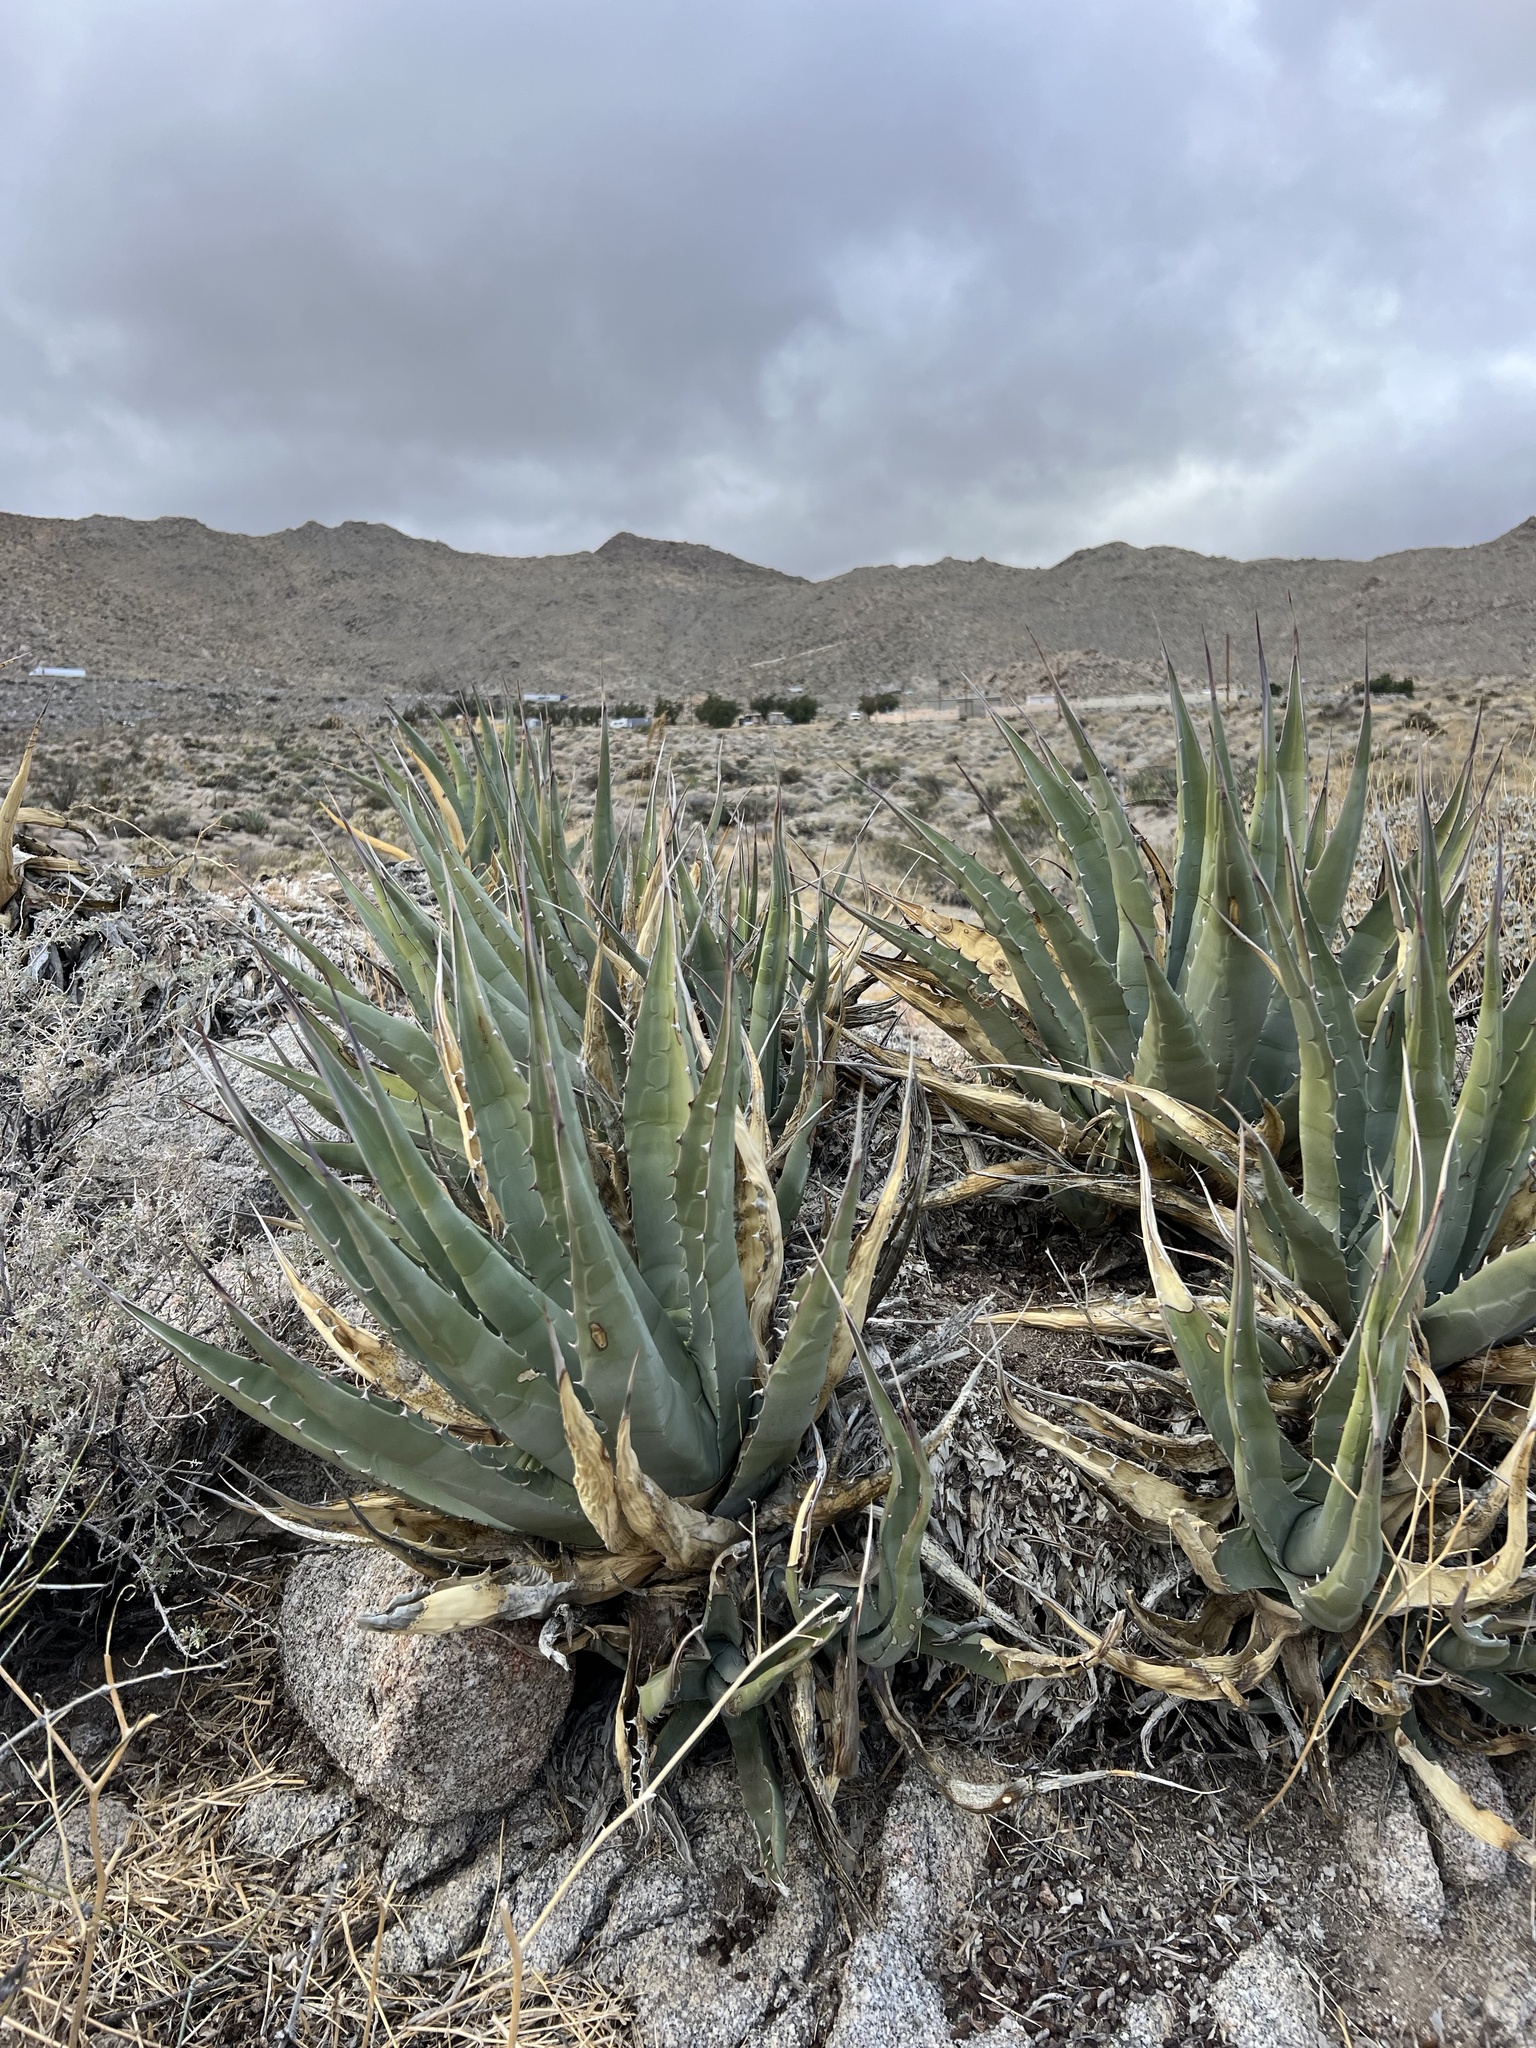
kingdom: Plantae
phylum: Tracheophyta
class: Liliopsida
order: Asparagales
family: Asparagaceae
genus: Agave
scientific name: Agave deserti
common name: Desert agave
